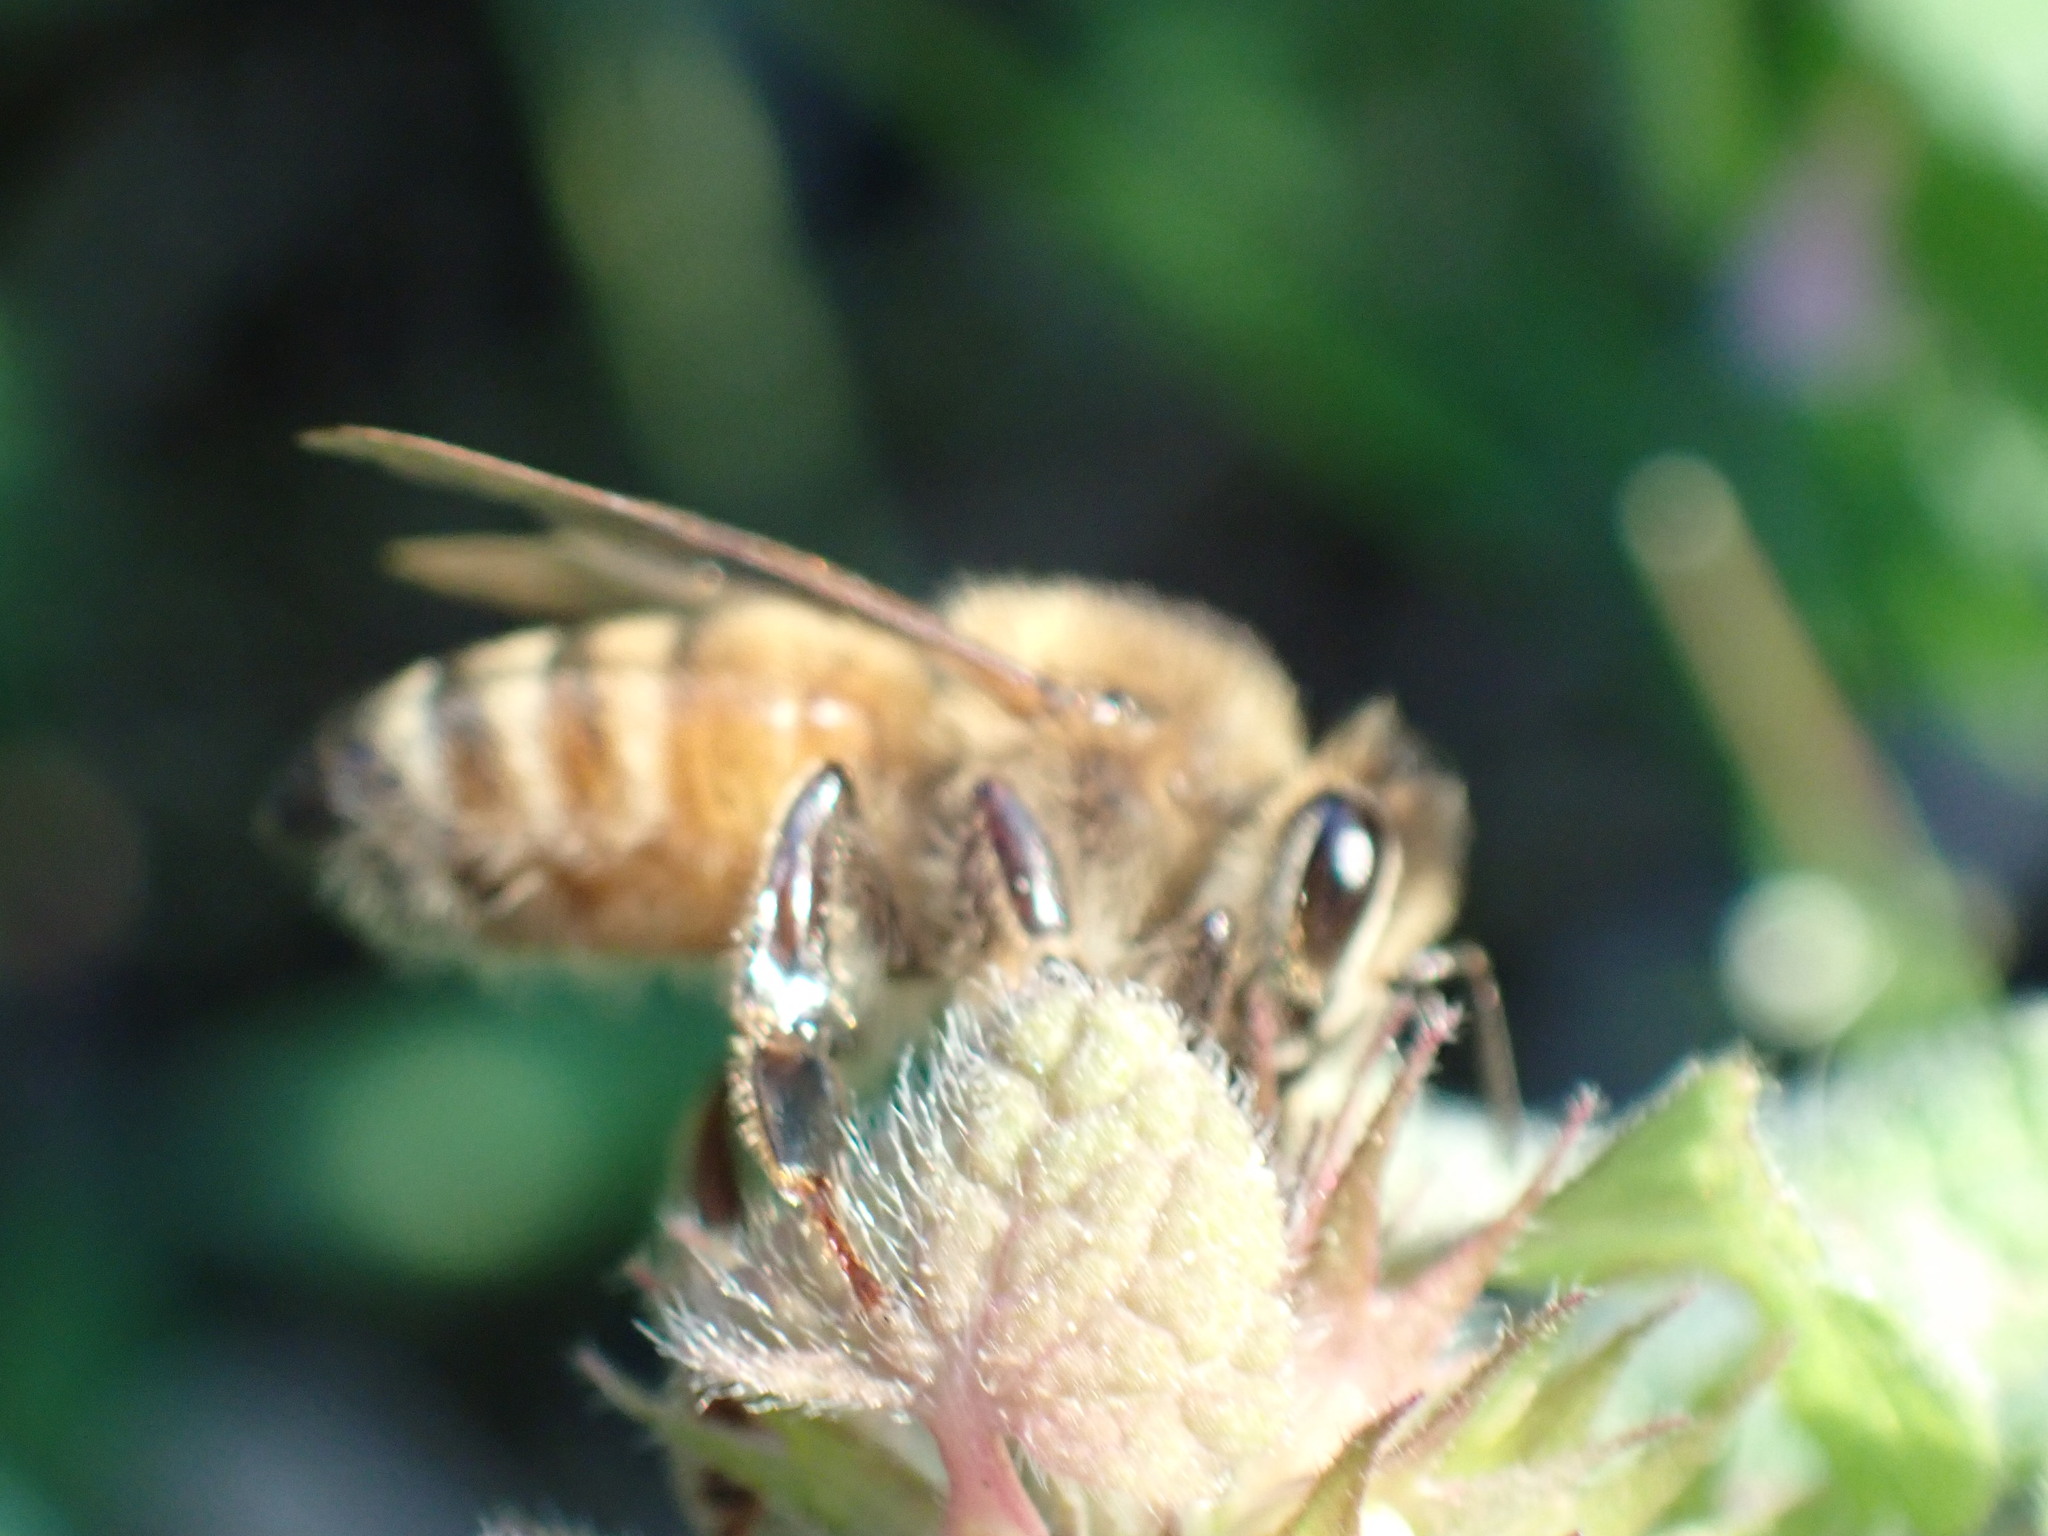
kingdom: Animalia
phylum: Arthropoda
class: Insecta
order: Hymenoptera
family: Apidae
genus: Apis
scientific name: Apis mellifera
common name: Honey bee
